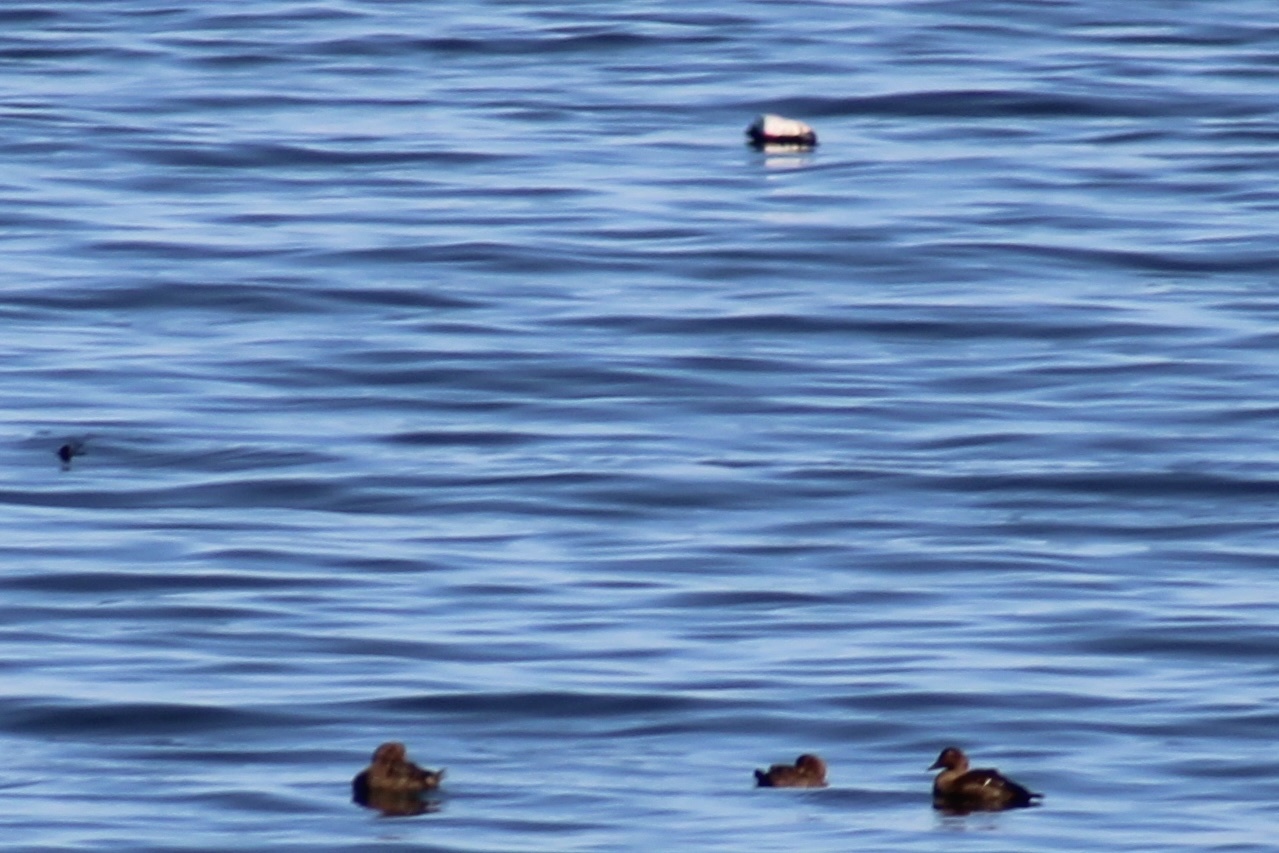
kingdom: Animalia
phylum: Chordata
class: Aves
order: Anseriformes
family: Anatidae
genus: Somateria
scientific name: Somateria mollissima
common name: Common eider
